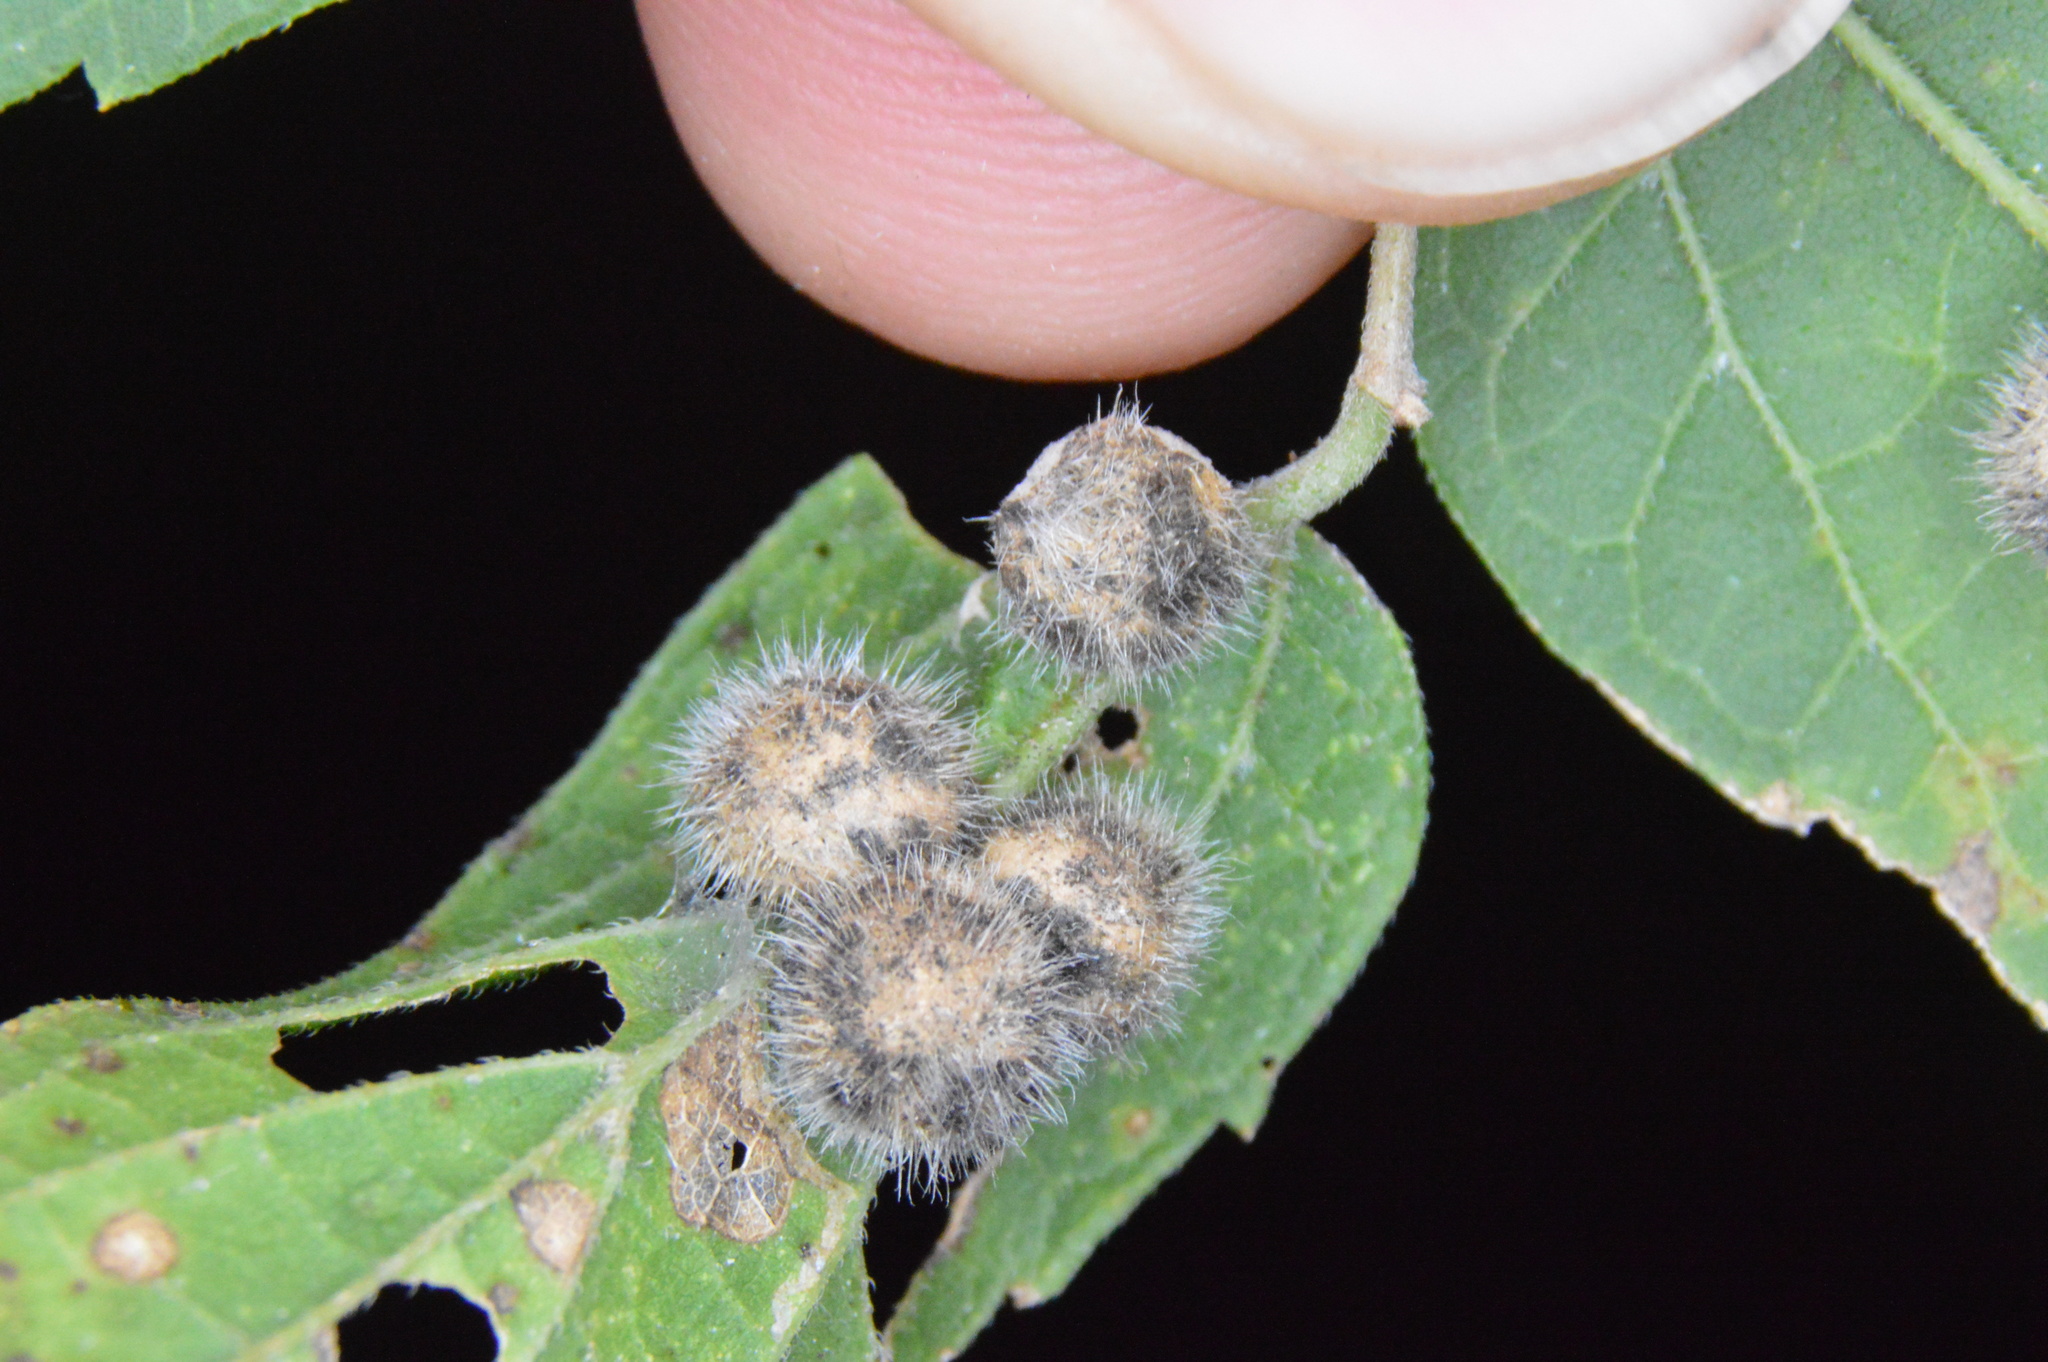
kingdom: Animalia
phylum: Arthropoda
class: Insecta
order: Diptera
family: Cecidomyiidae
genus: Celticecis
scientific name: Celticecis pubescens
